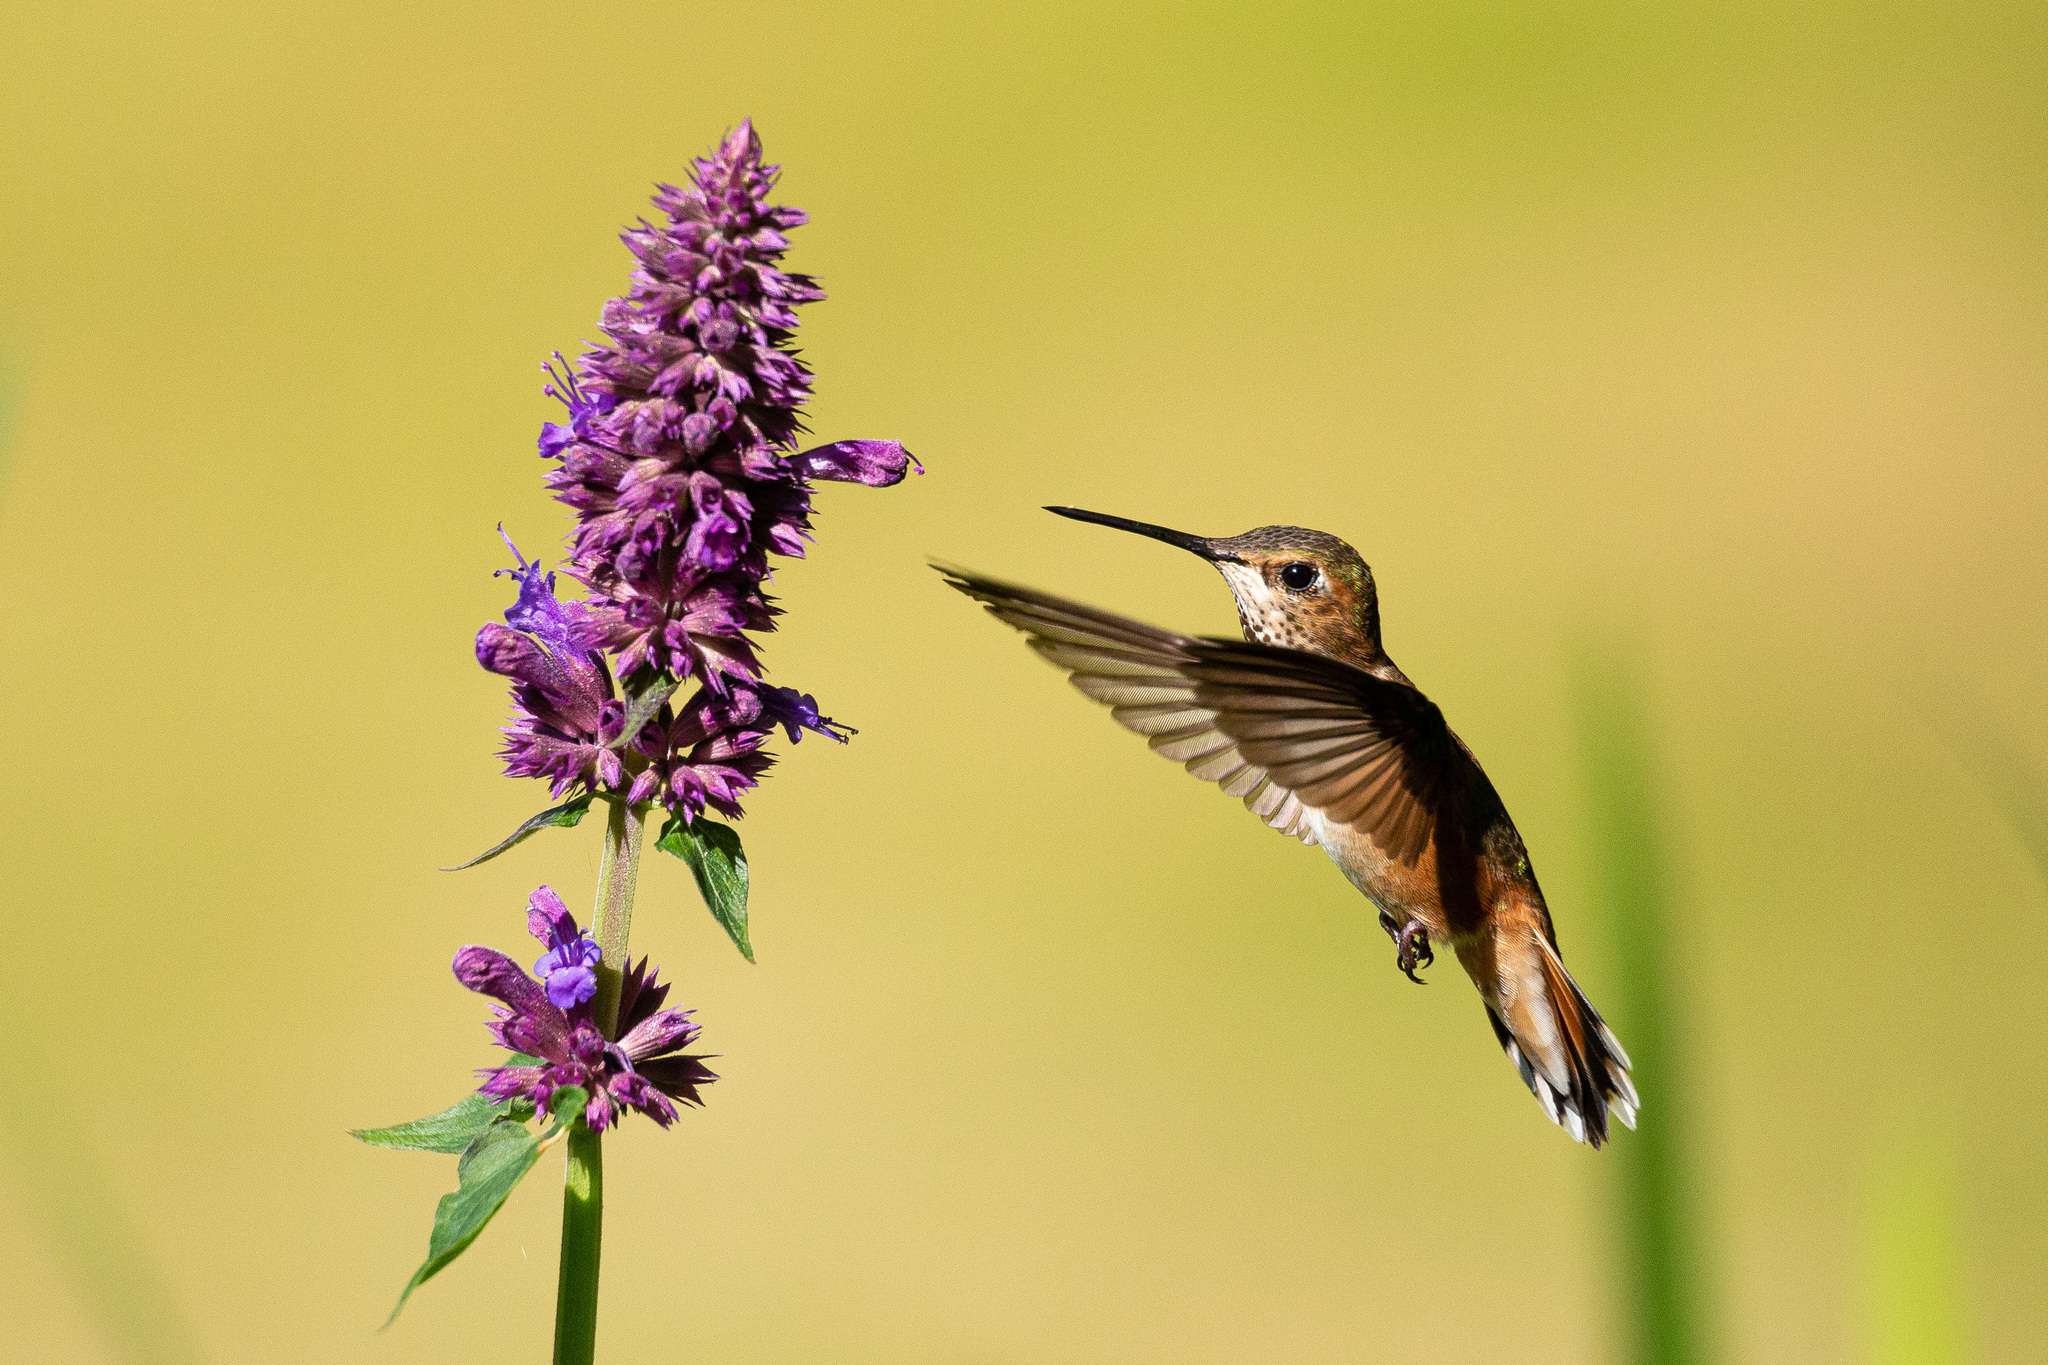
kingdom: Animalia
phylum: Chordata
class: Aves
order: Apodiformes
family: Trochilidae
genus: Selasphorus
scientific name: Selasphorus rufus
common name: Rufous hummingbird
